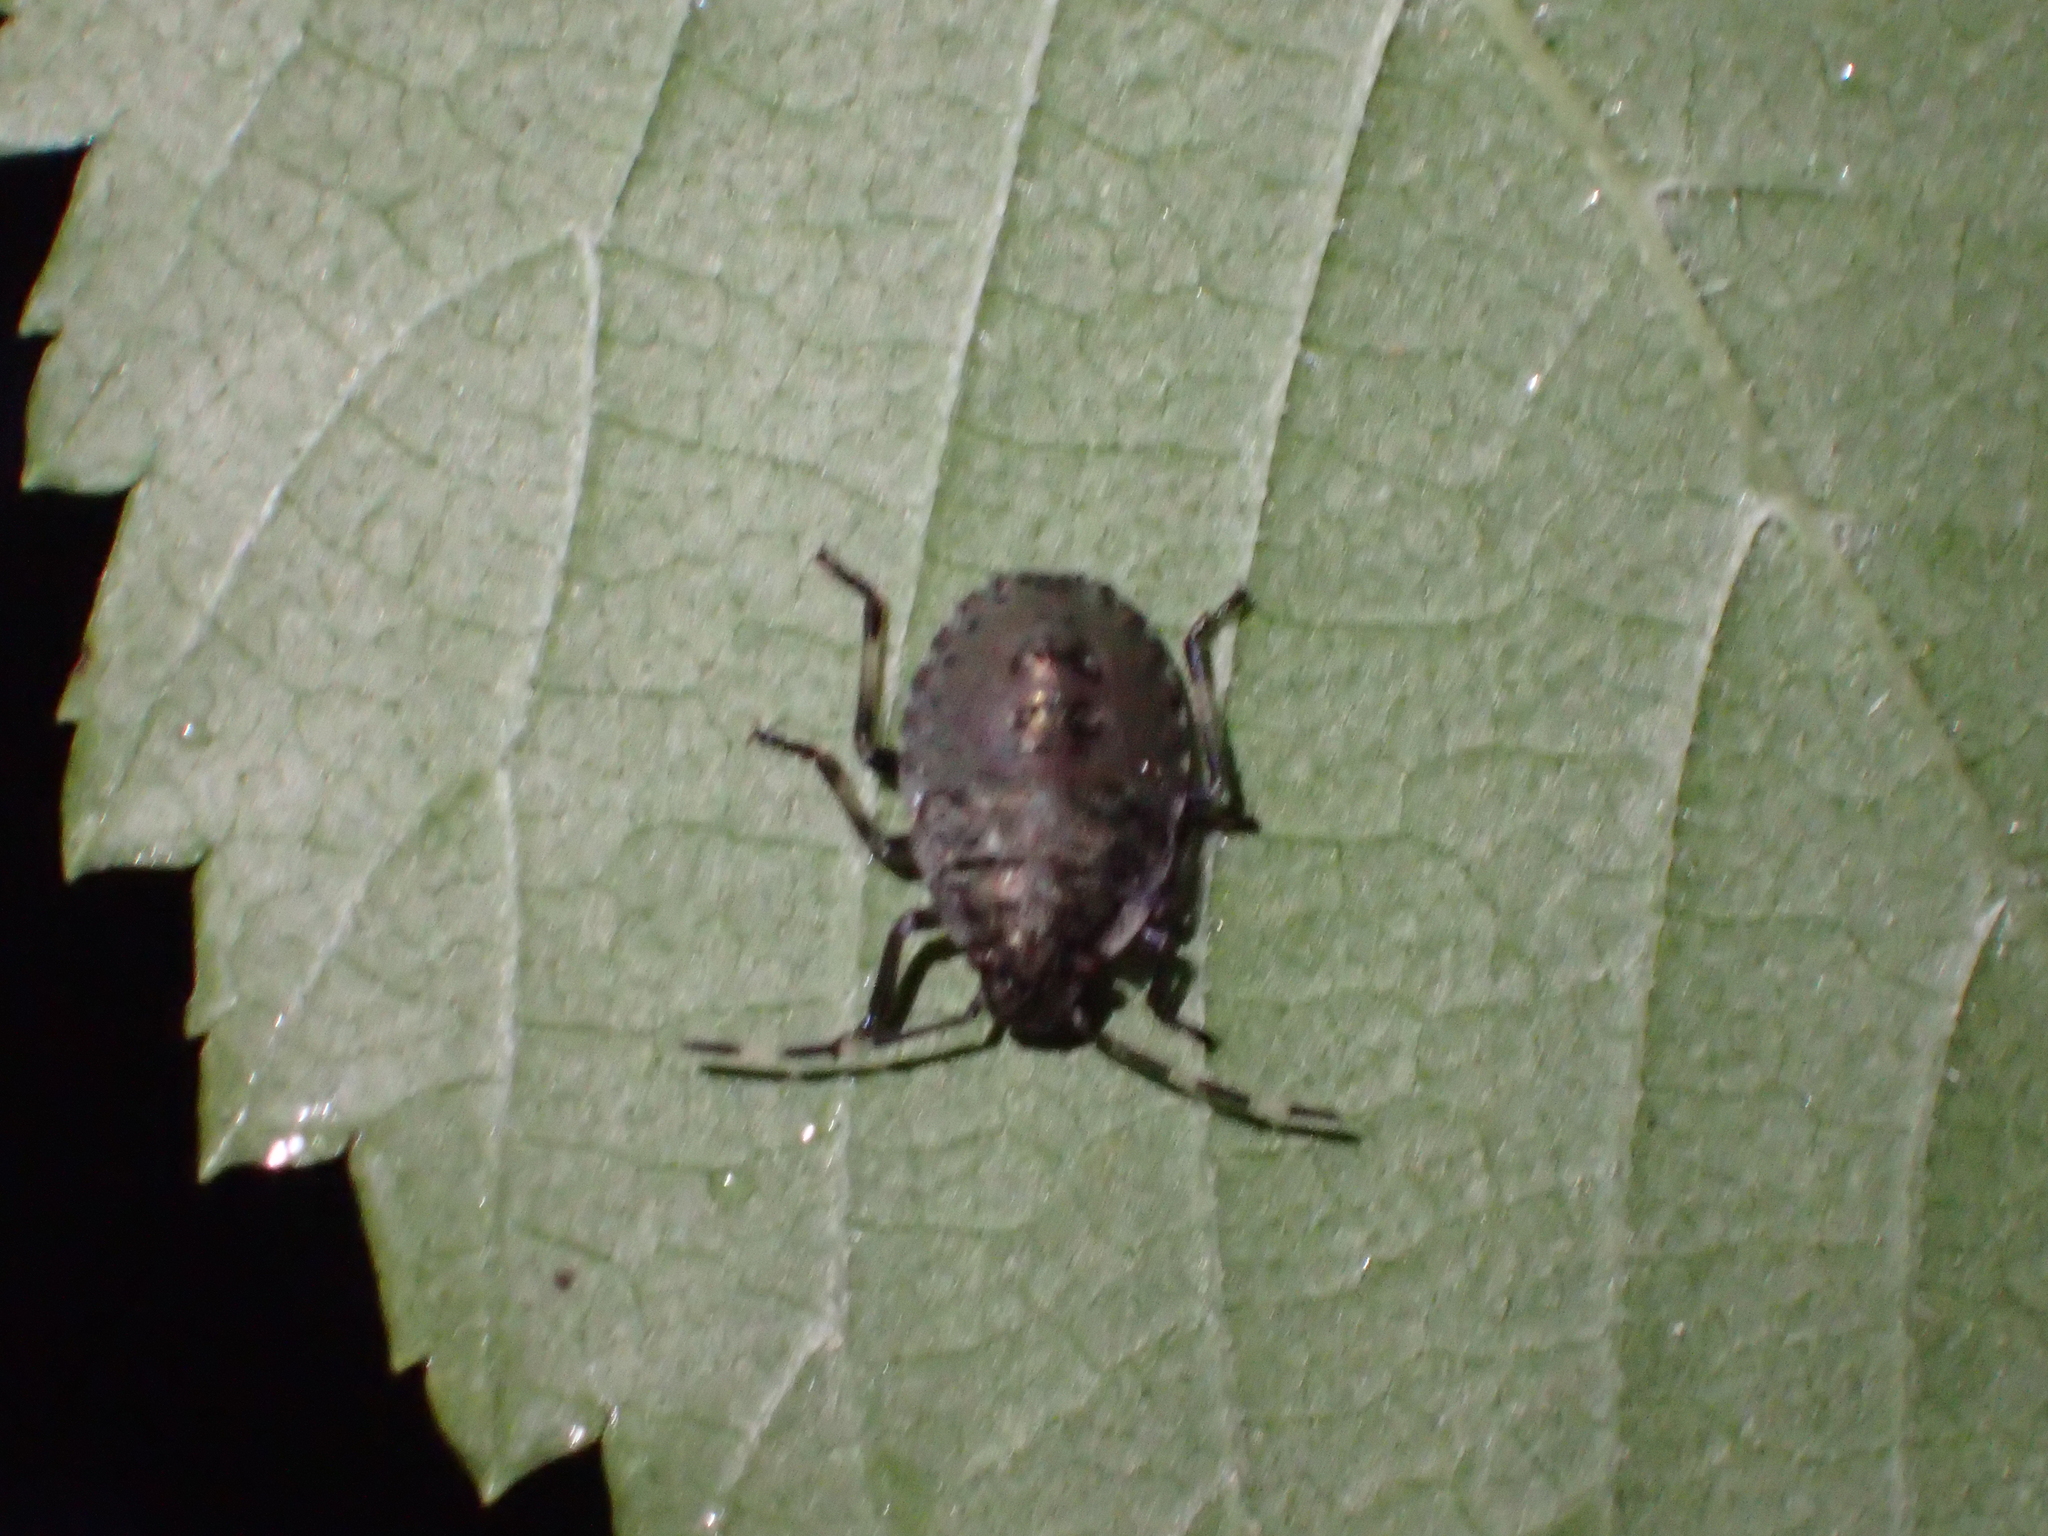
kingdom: Animalia
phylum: Arthropoda
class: Insecta
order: Hemiptera
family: Pentatomidae
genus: Rhaphigaster
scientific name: Rhaphigaster nebulosa
